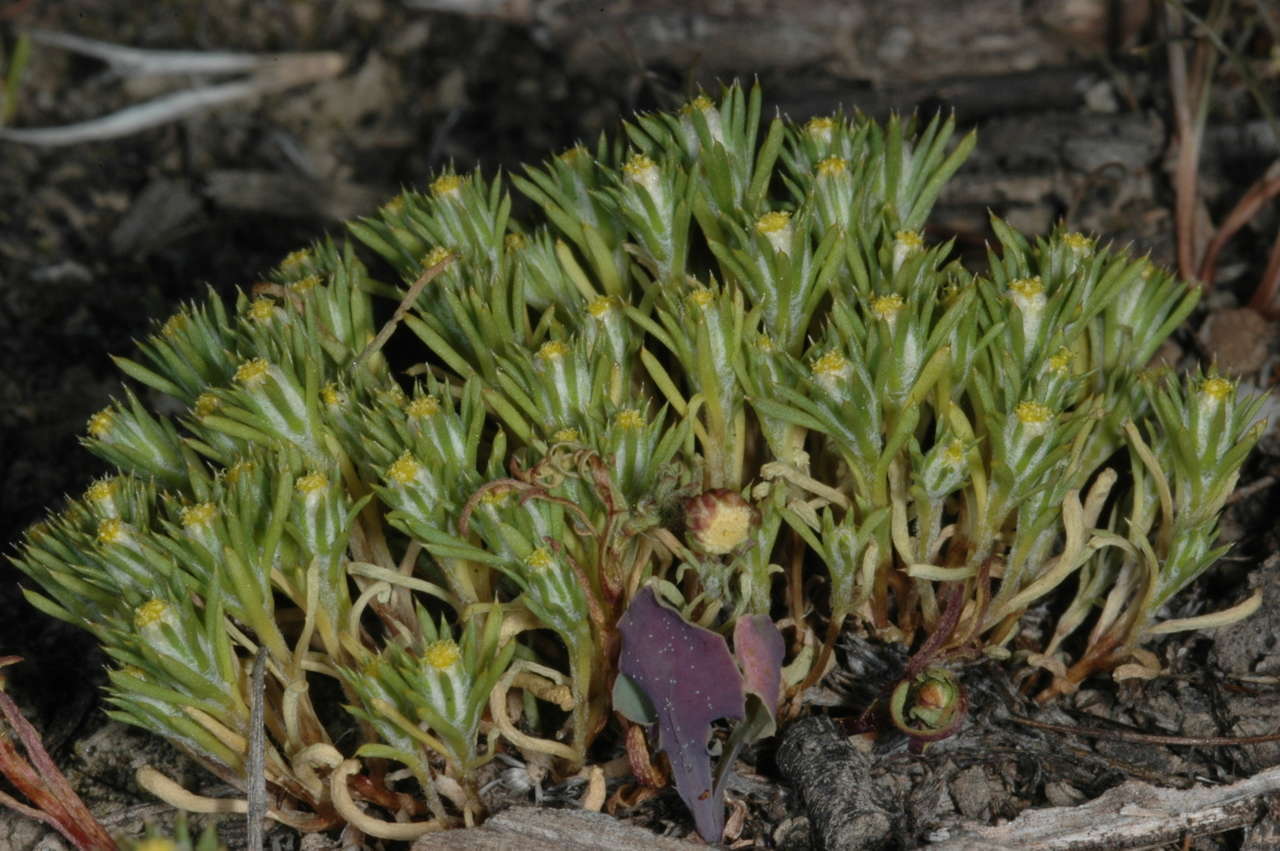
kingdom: Plantae
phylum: Tracheophyta
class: Magnoliopsida
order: Asterales
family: Asteraceae
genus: Pogonolepis
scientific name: Pogonolepis muelleriana
